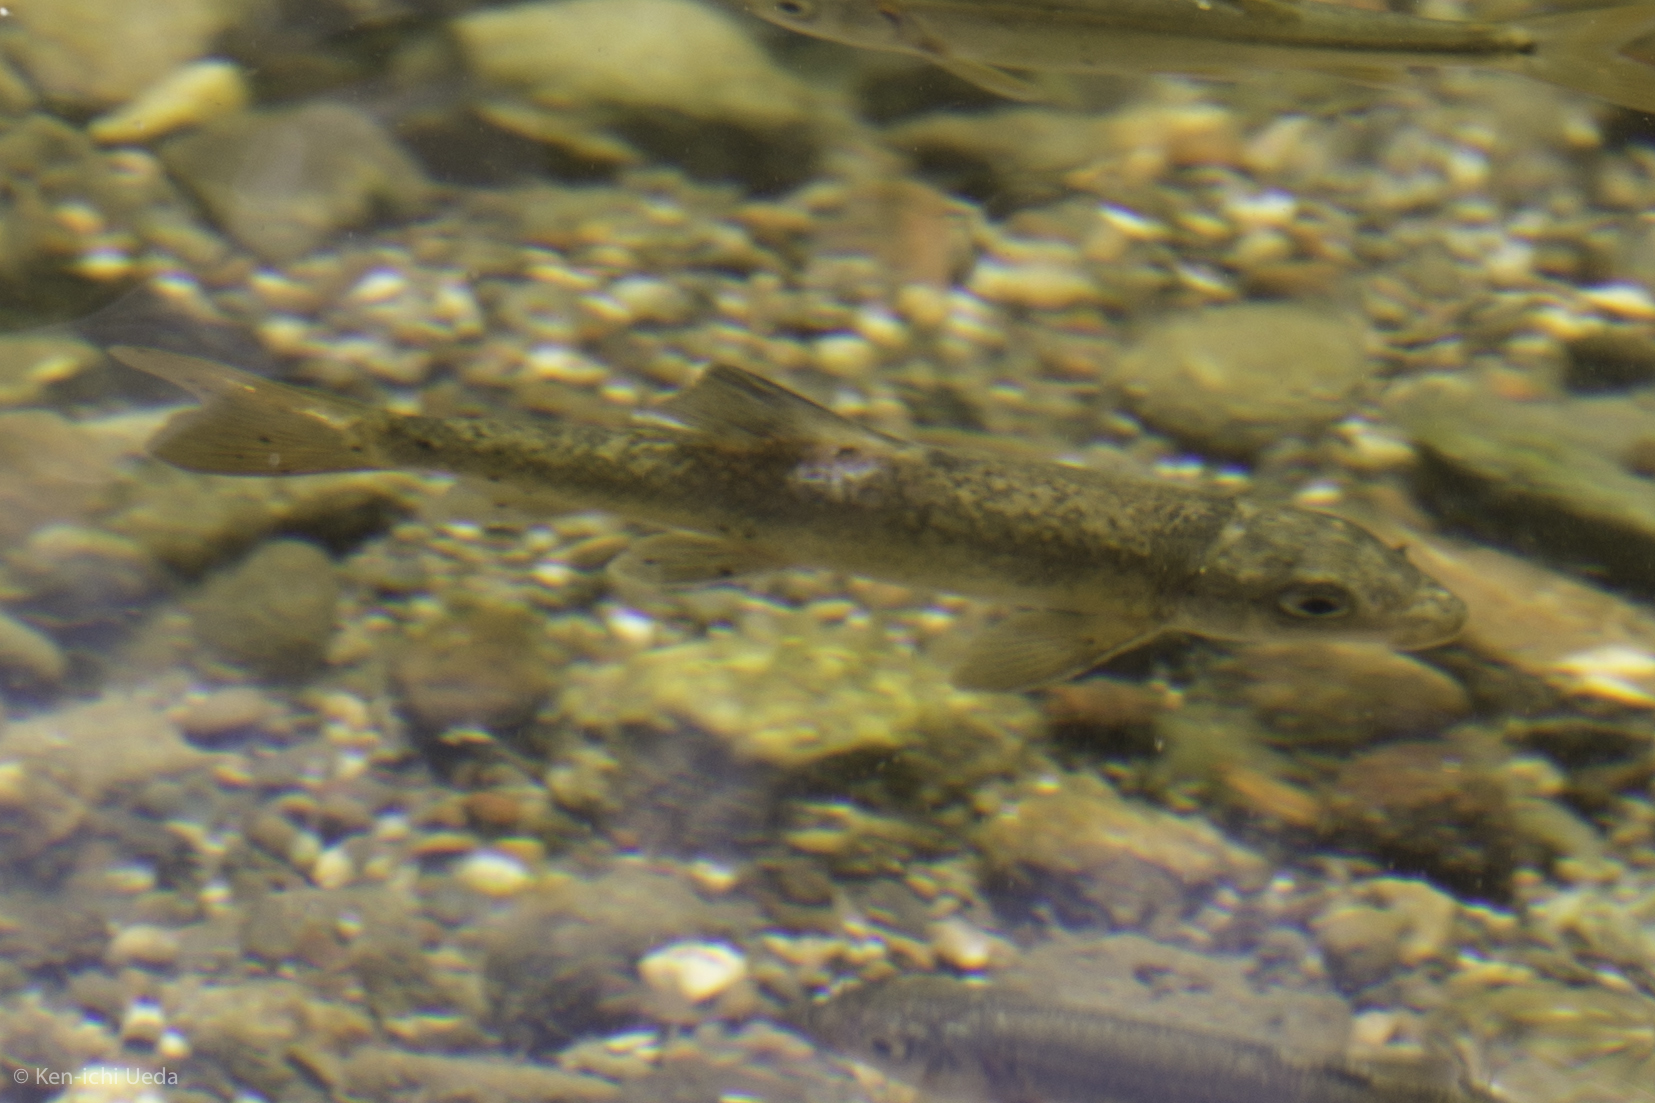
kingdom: Animalia
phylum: Chordata
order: Cypriniformes
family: Catostomidae
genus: Catostomus
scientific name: Catostomus occidentalis
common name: Goose lake sucker
